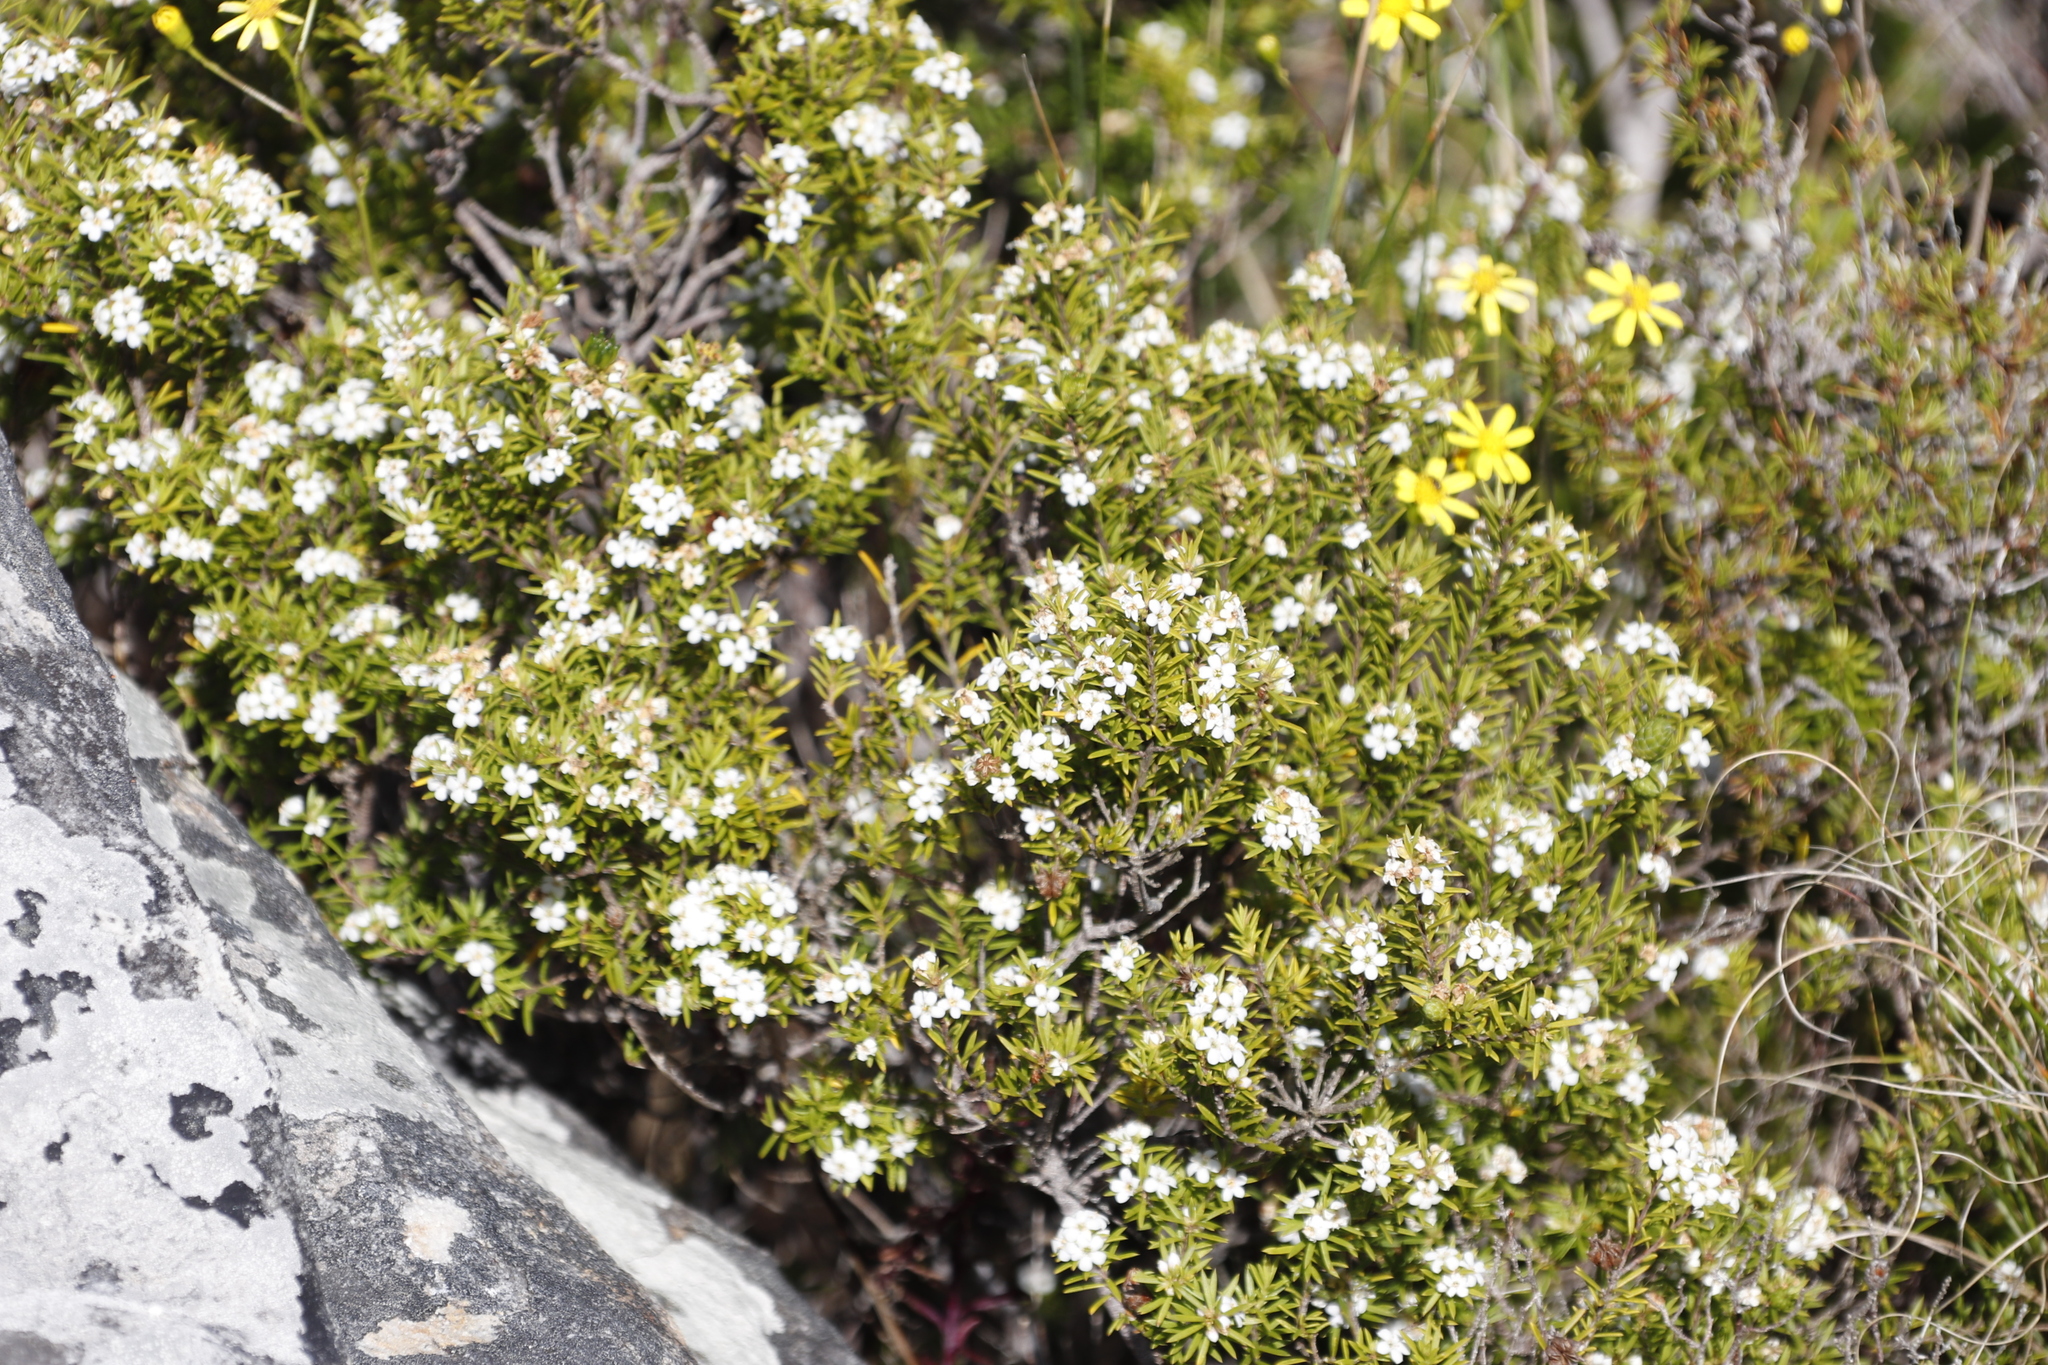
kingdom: Plantae
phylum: Tracheophyta
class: Magnoliopsida
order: Sapindales
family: Rutaceae
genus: Coleonema
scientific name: Coleonema album
